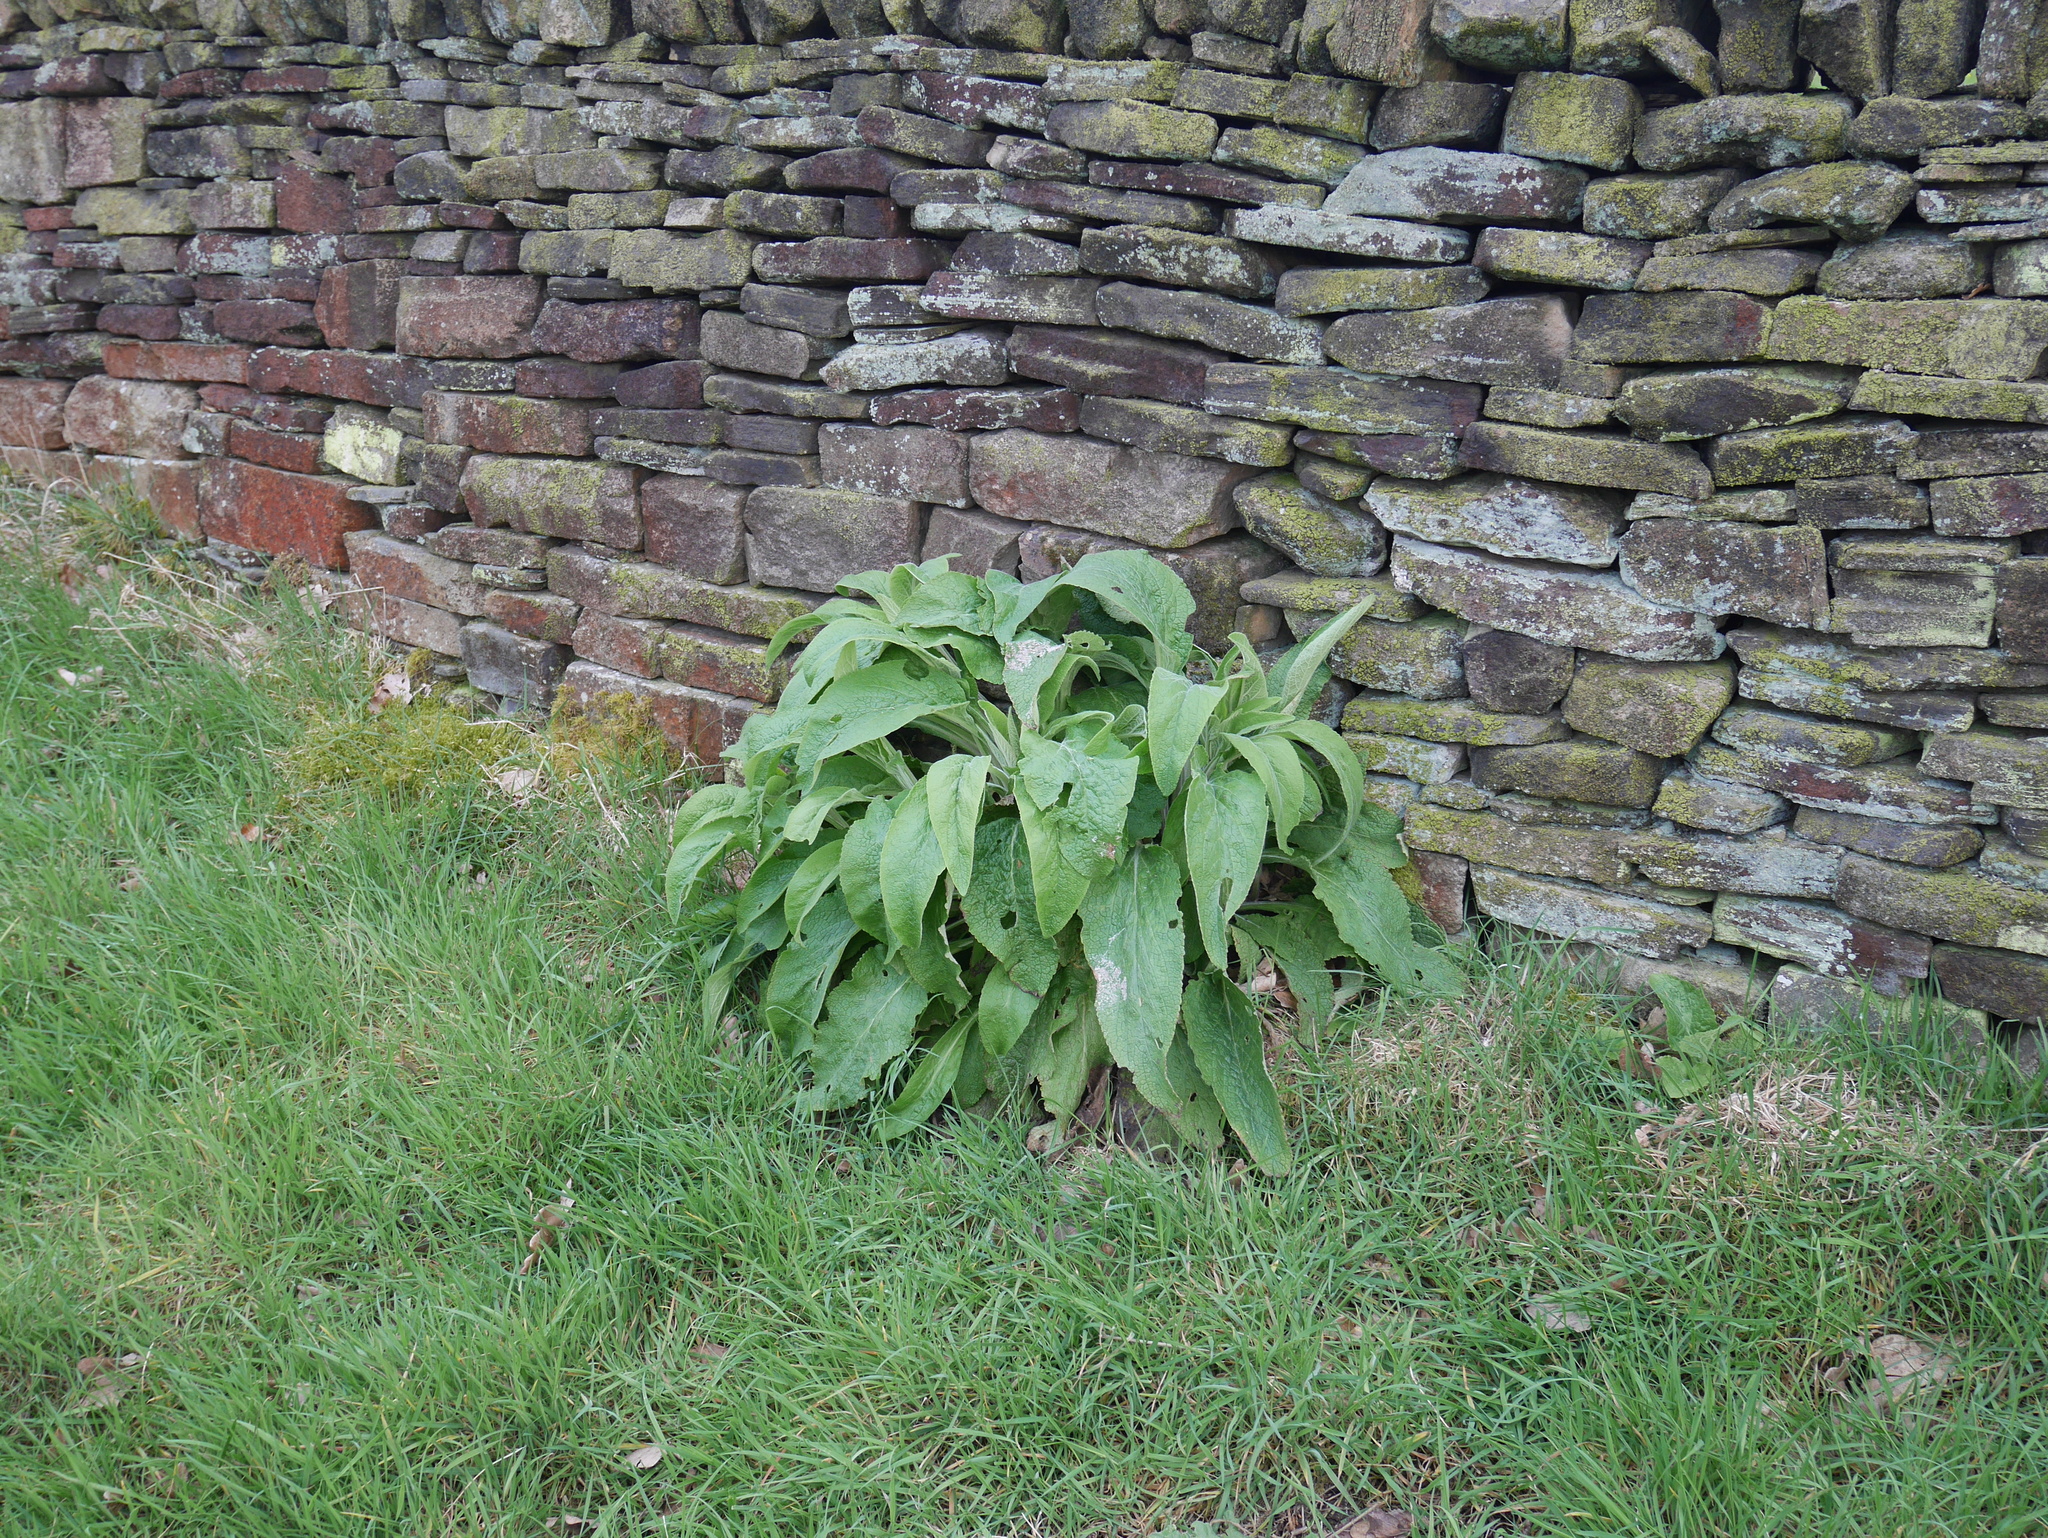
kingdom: Plantae
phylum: Tracheophyta
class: Magnoliopsida
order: Lamiales
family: Plantaginaceae
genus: Digitalis
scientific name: Digitalis purpurea
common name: Foxglove
